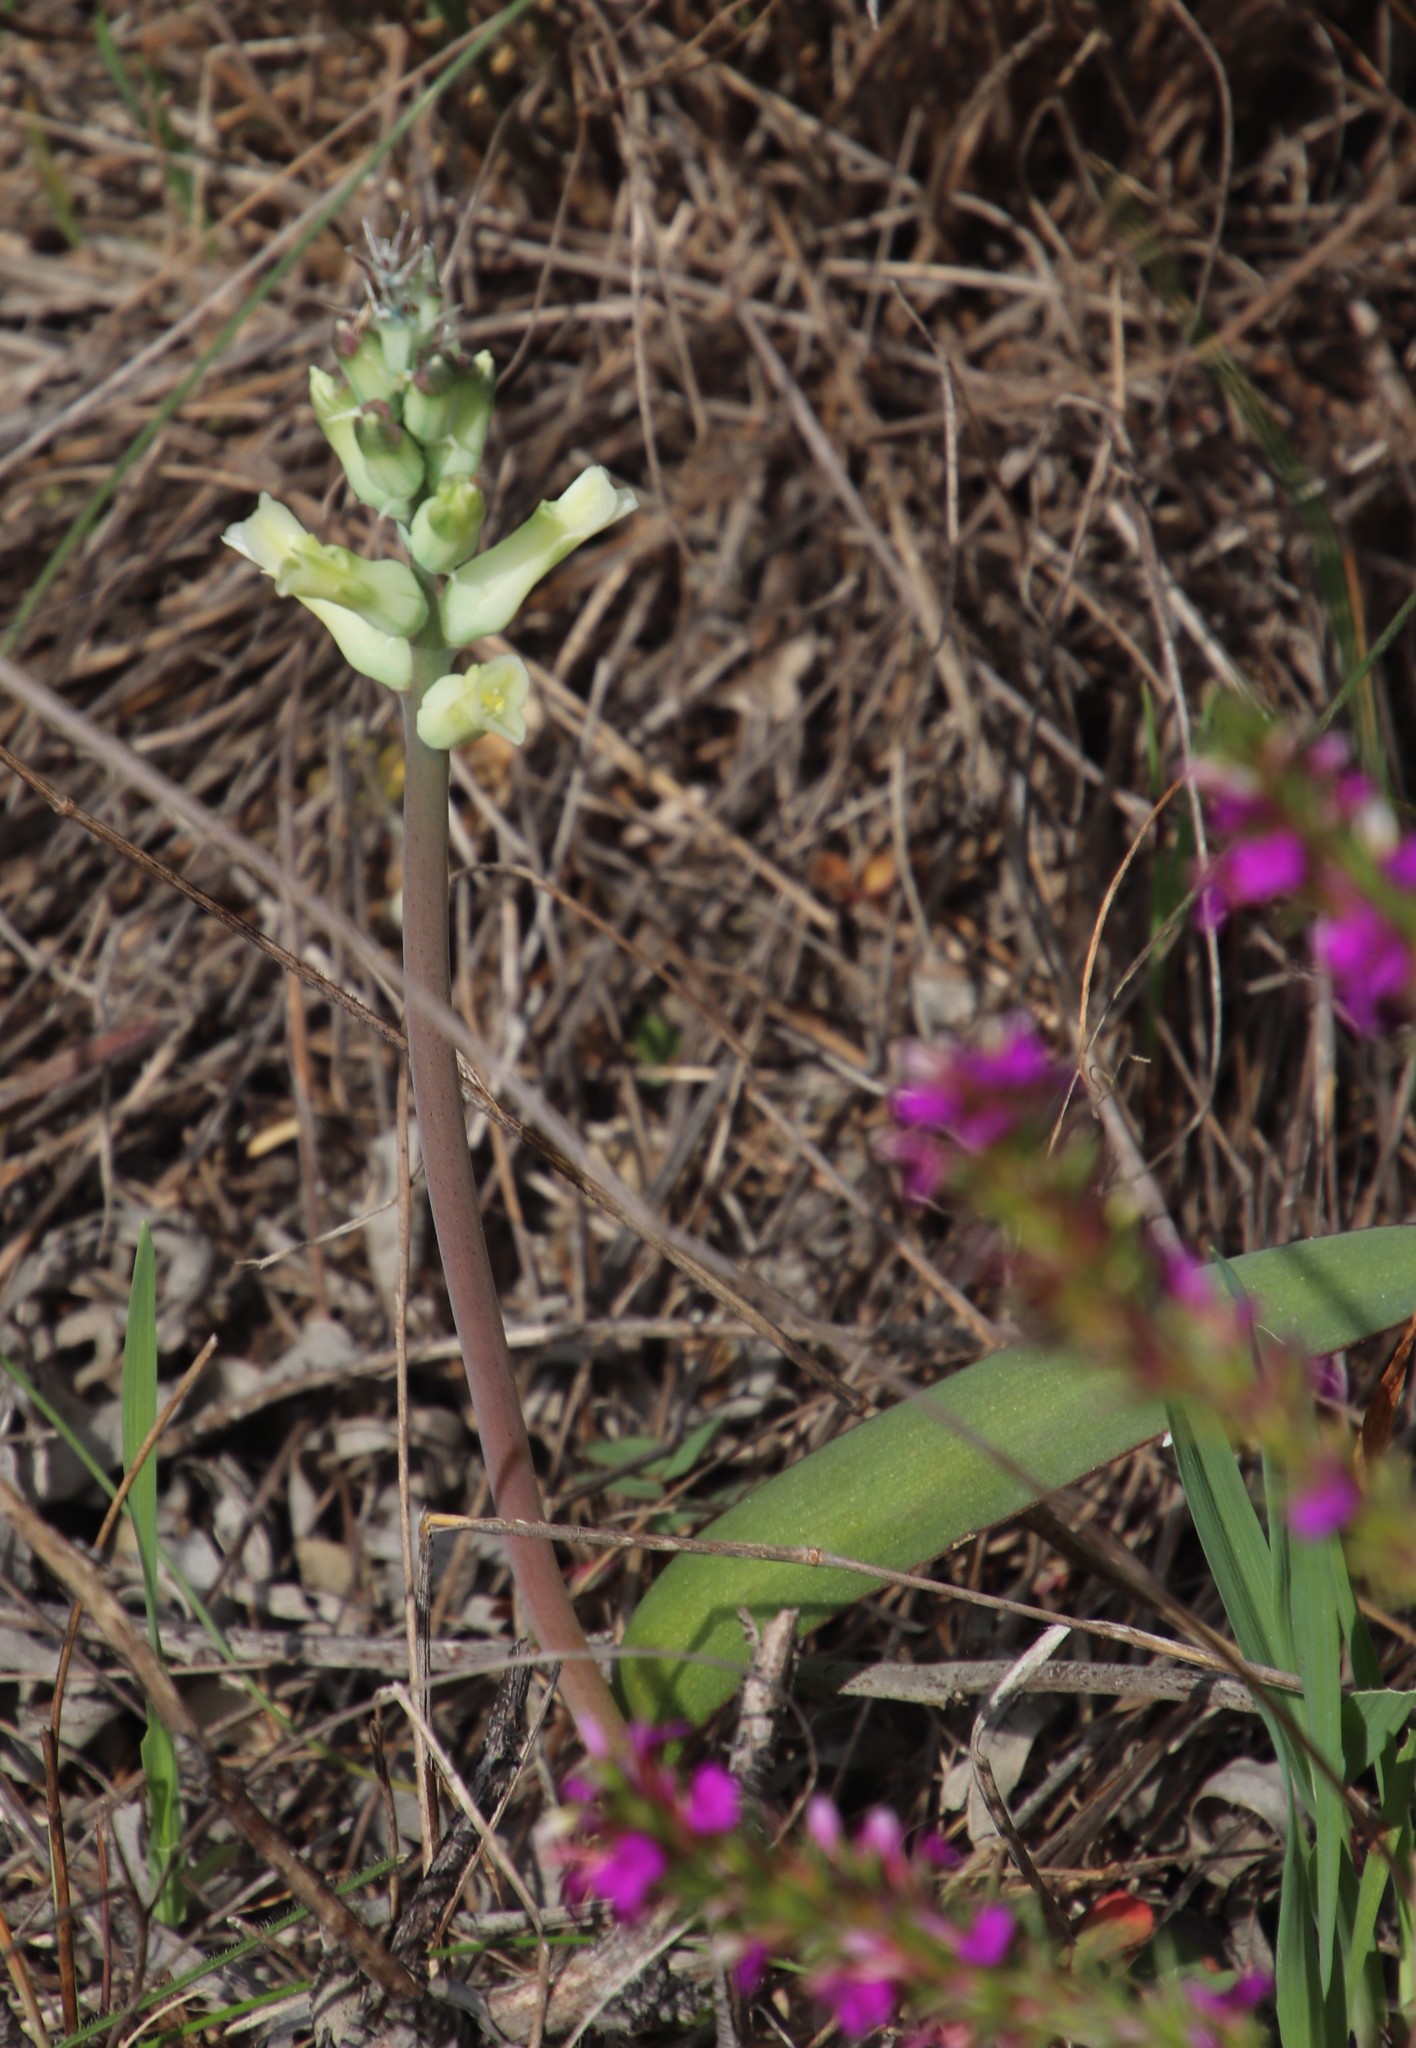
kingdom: Plantae
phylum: Tracheophyta
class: Liliopsida
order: Asparagales
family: Asparagaceae
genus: Lachenalia
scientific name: Lachenalia orchioides
